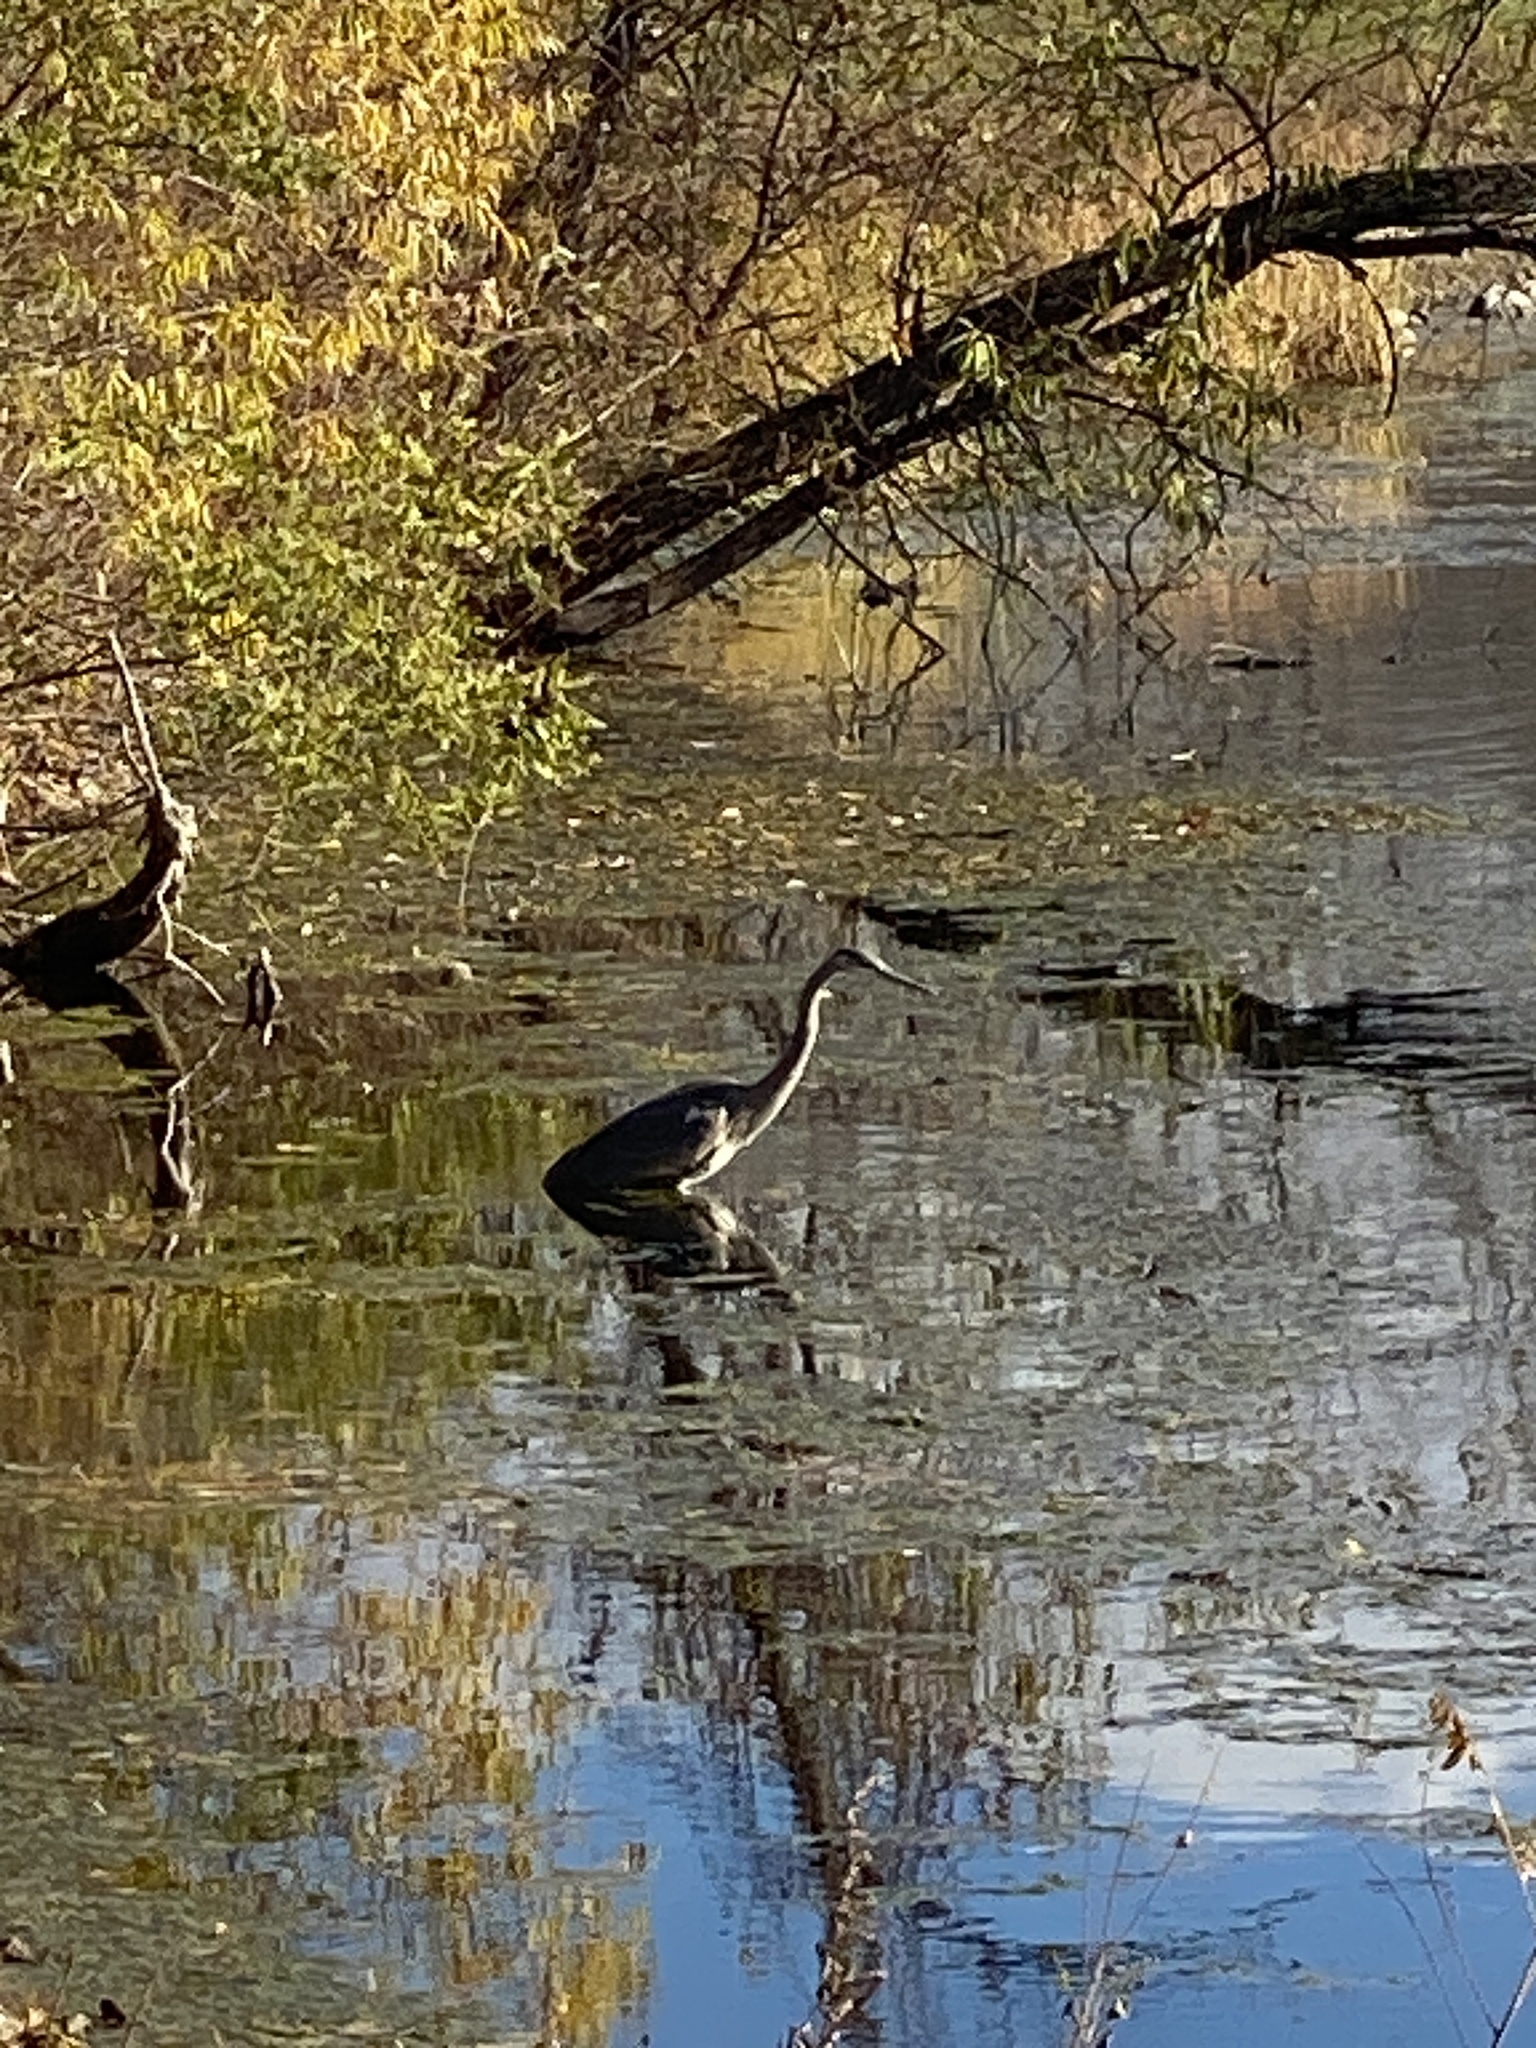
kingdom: Animalia
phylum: Chordata
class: Aves
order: Pelecaniformes
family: Ardeidae
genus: Ardea
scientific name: Ardea herodias
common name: Great blue heron
